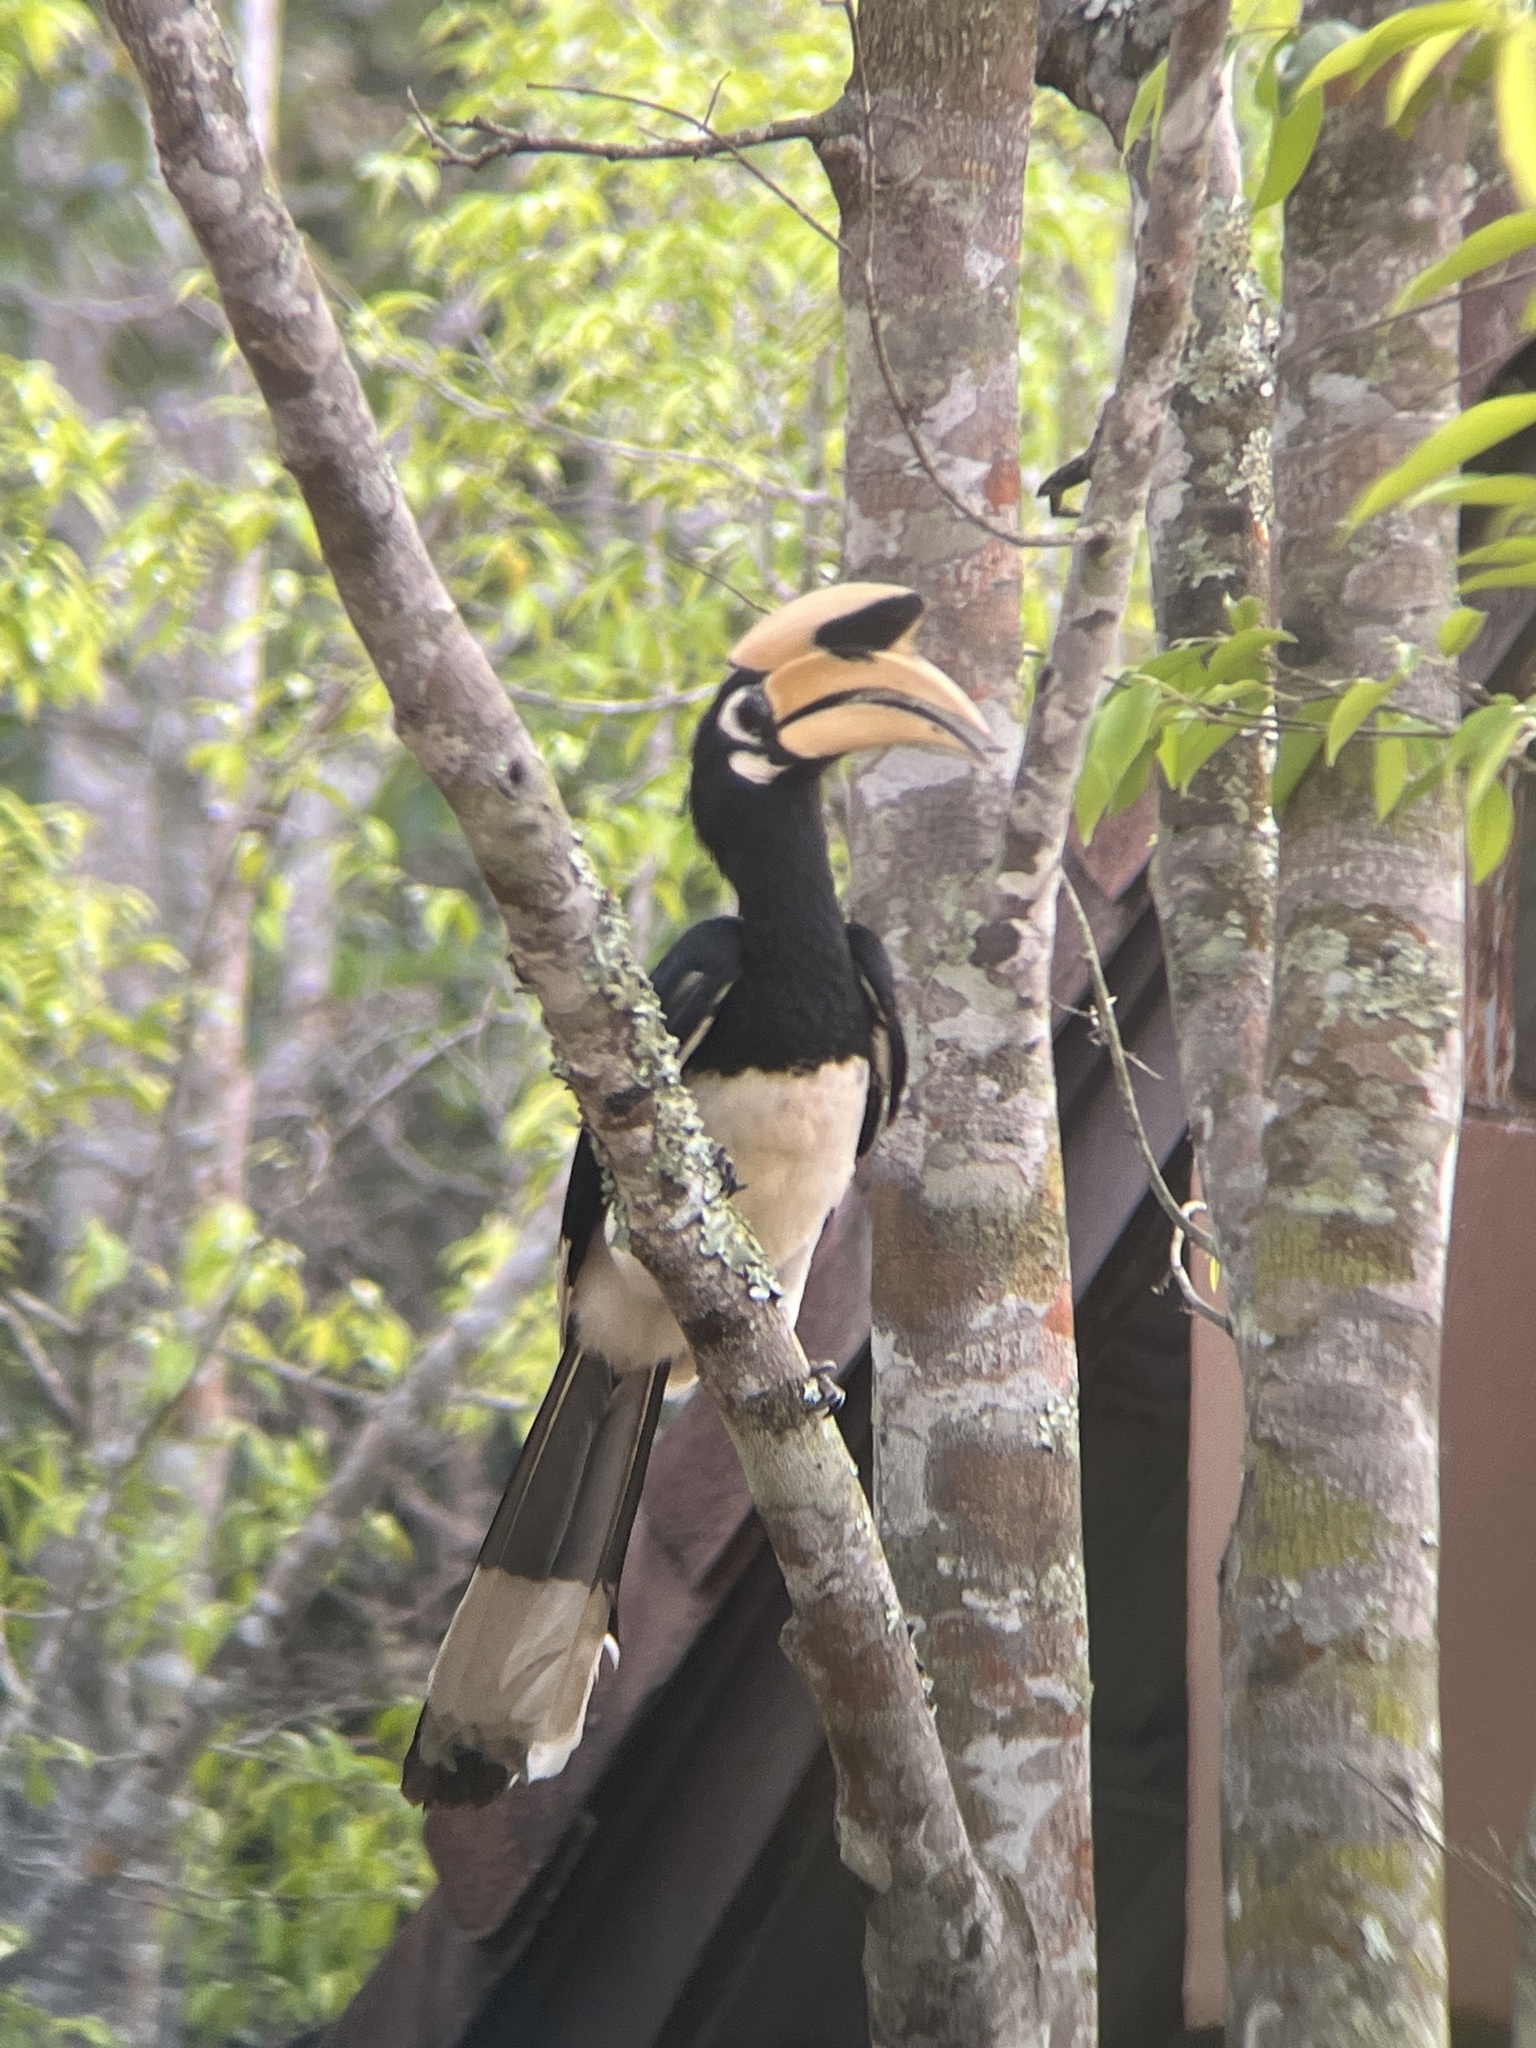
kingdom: Animalia
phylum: Chordata
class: Aves
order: Bucerotiformes
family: Bucerotidae
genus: Anthracoceros
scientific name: Anthracoceros albirostris
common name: Oriental pied-hornbill
